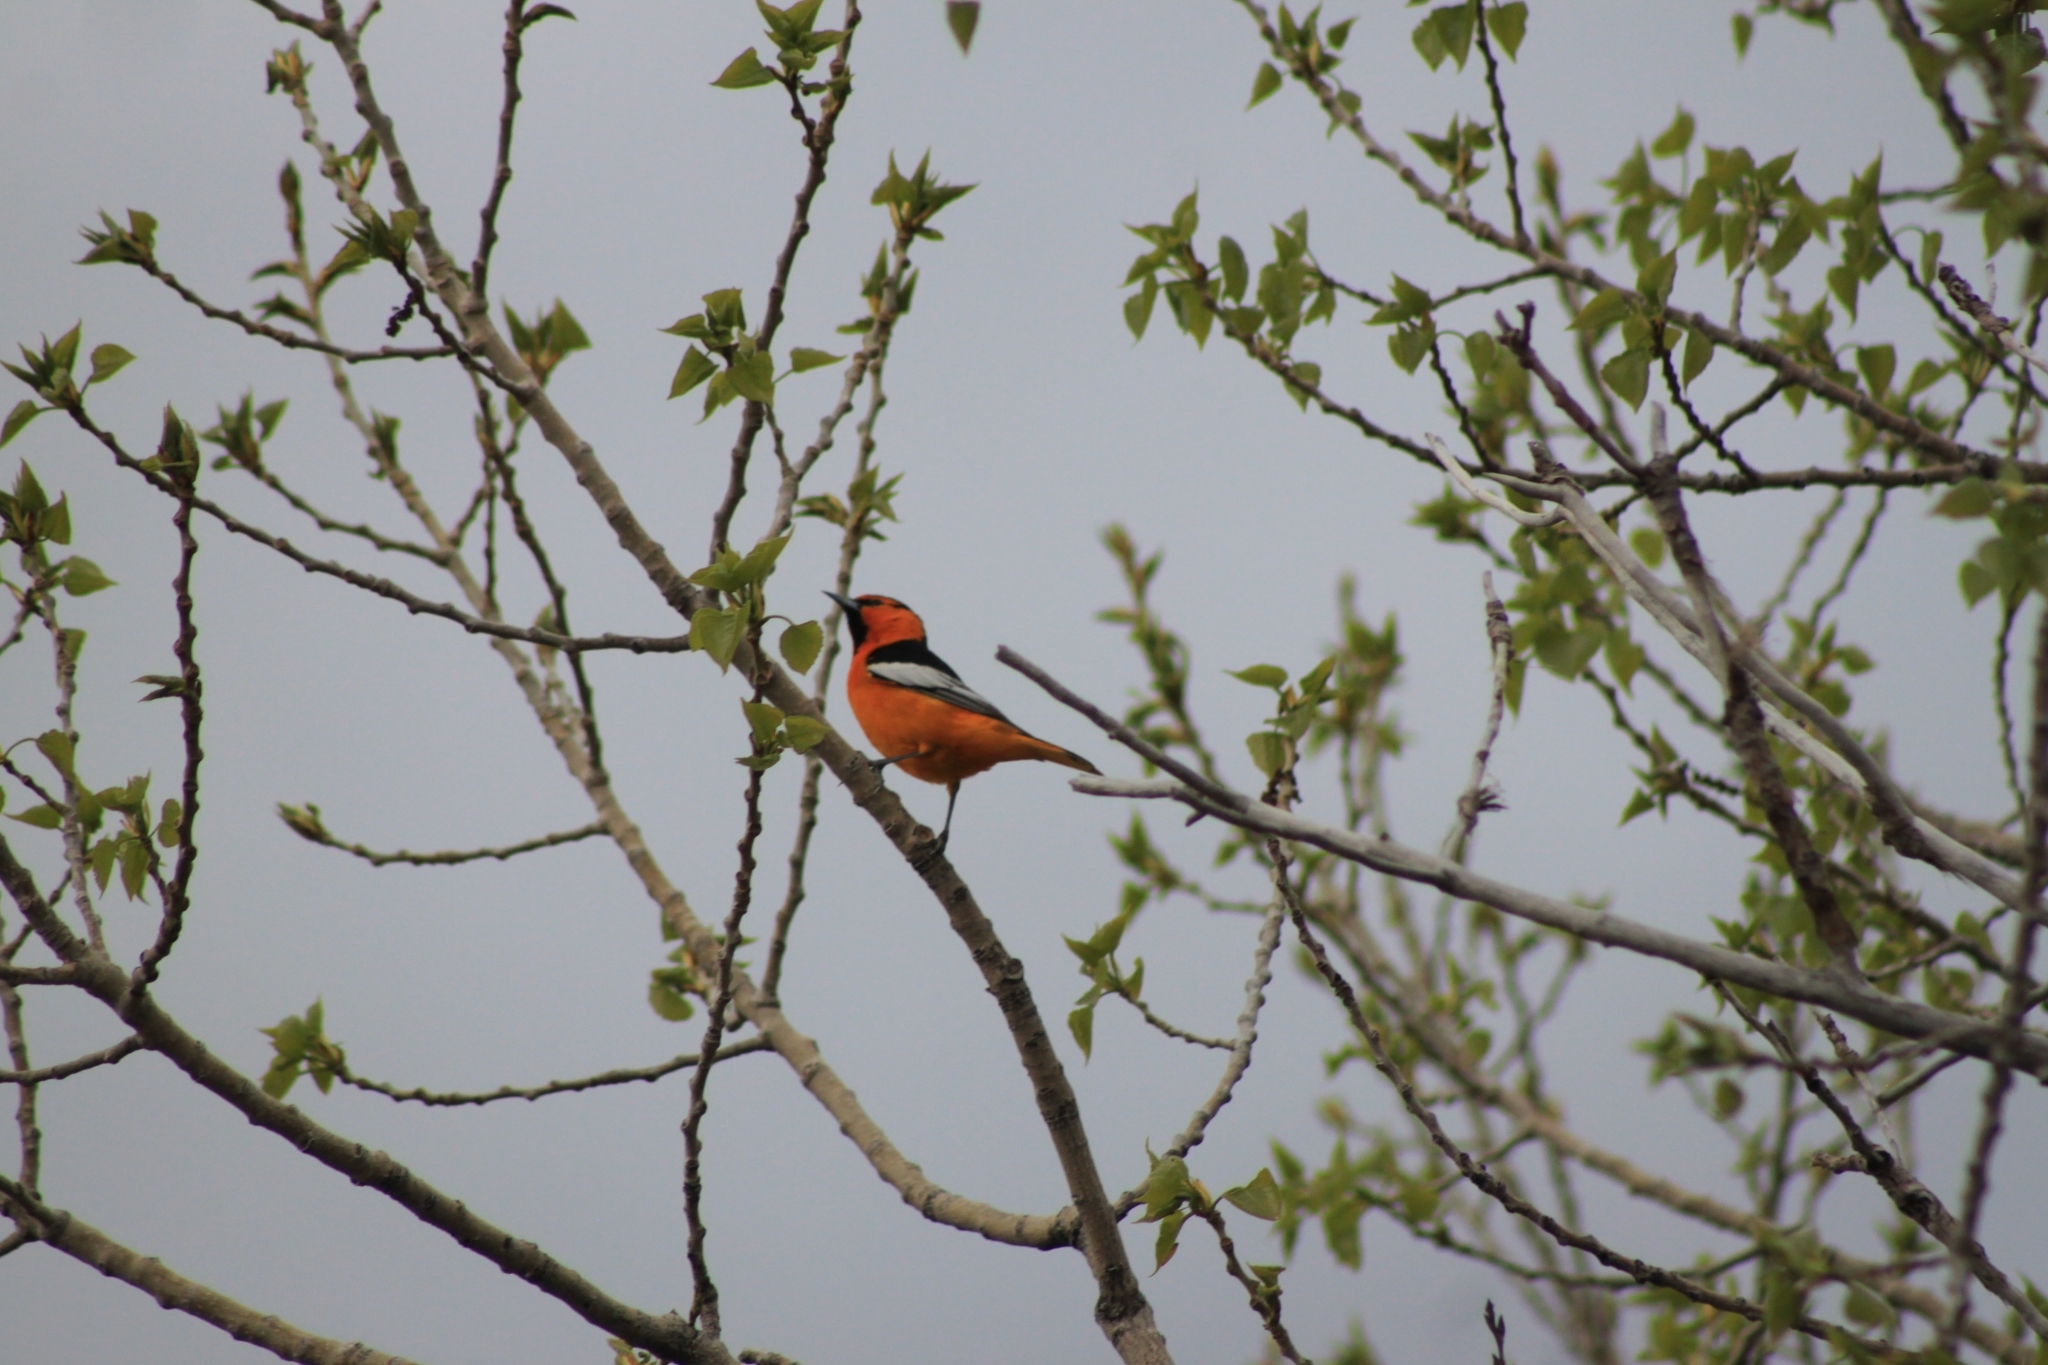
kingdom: Animalia
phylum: Chordata
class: Aves
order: Passeriformes
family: Icteridae
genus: Icterus
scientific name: Icterus bullockii
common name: Bullock's oriole
